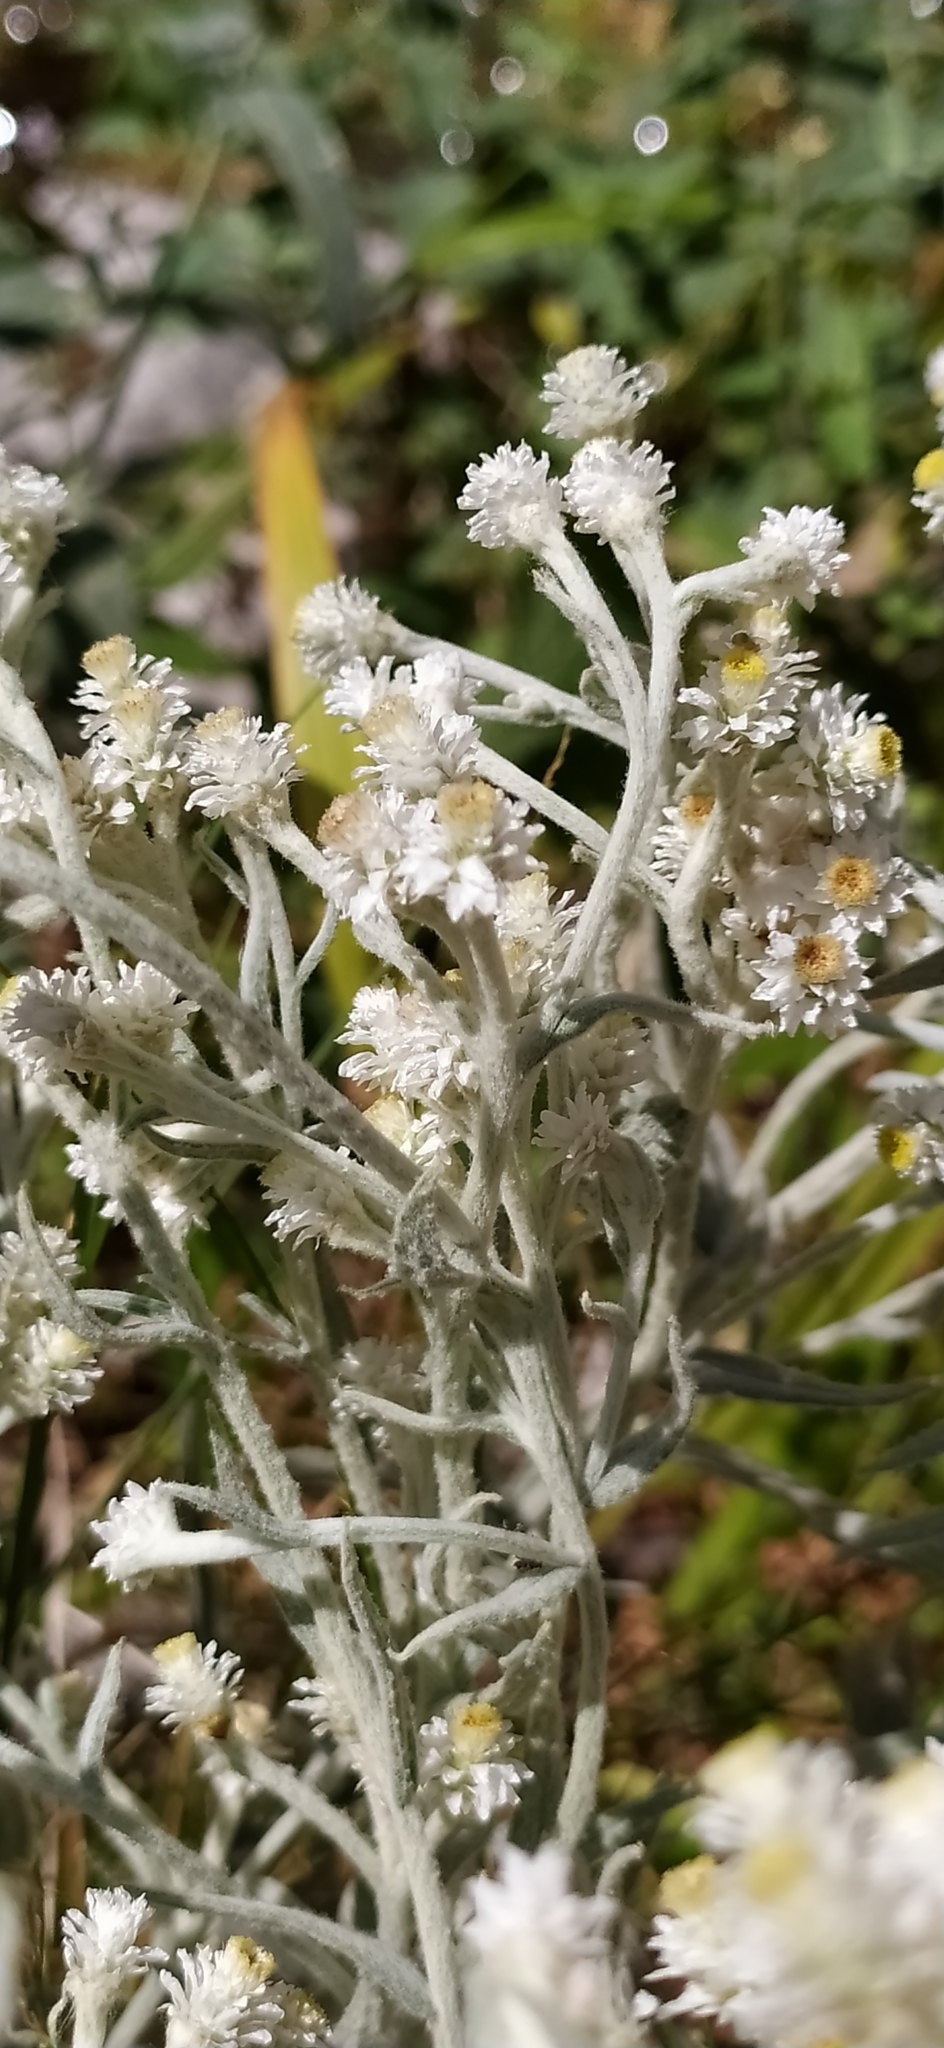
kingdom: Plantae
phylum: Tracheophyta
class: Magnoliopsida
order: Asterales
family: Asteraceae
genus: Anaphalis
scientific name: Anaphalis velutina
